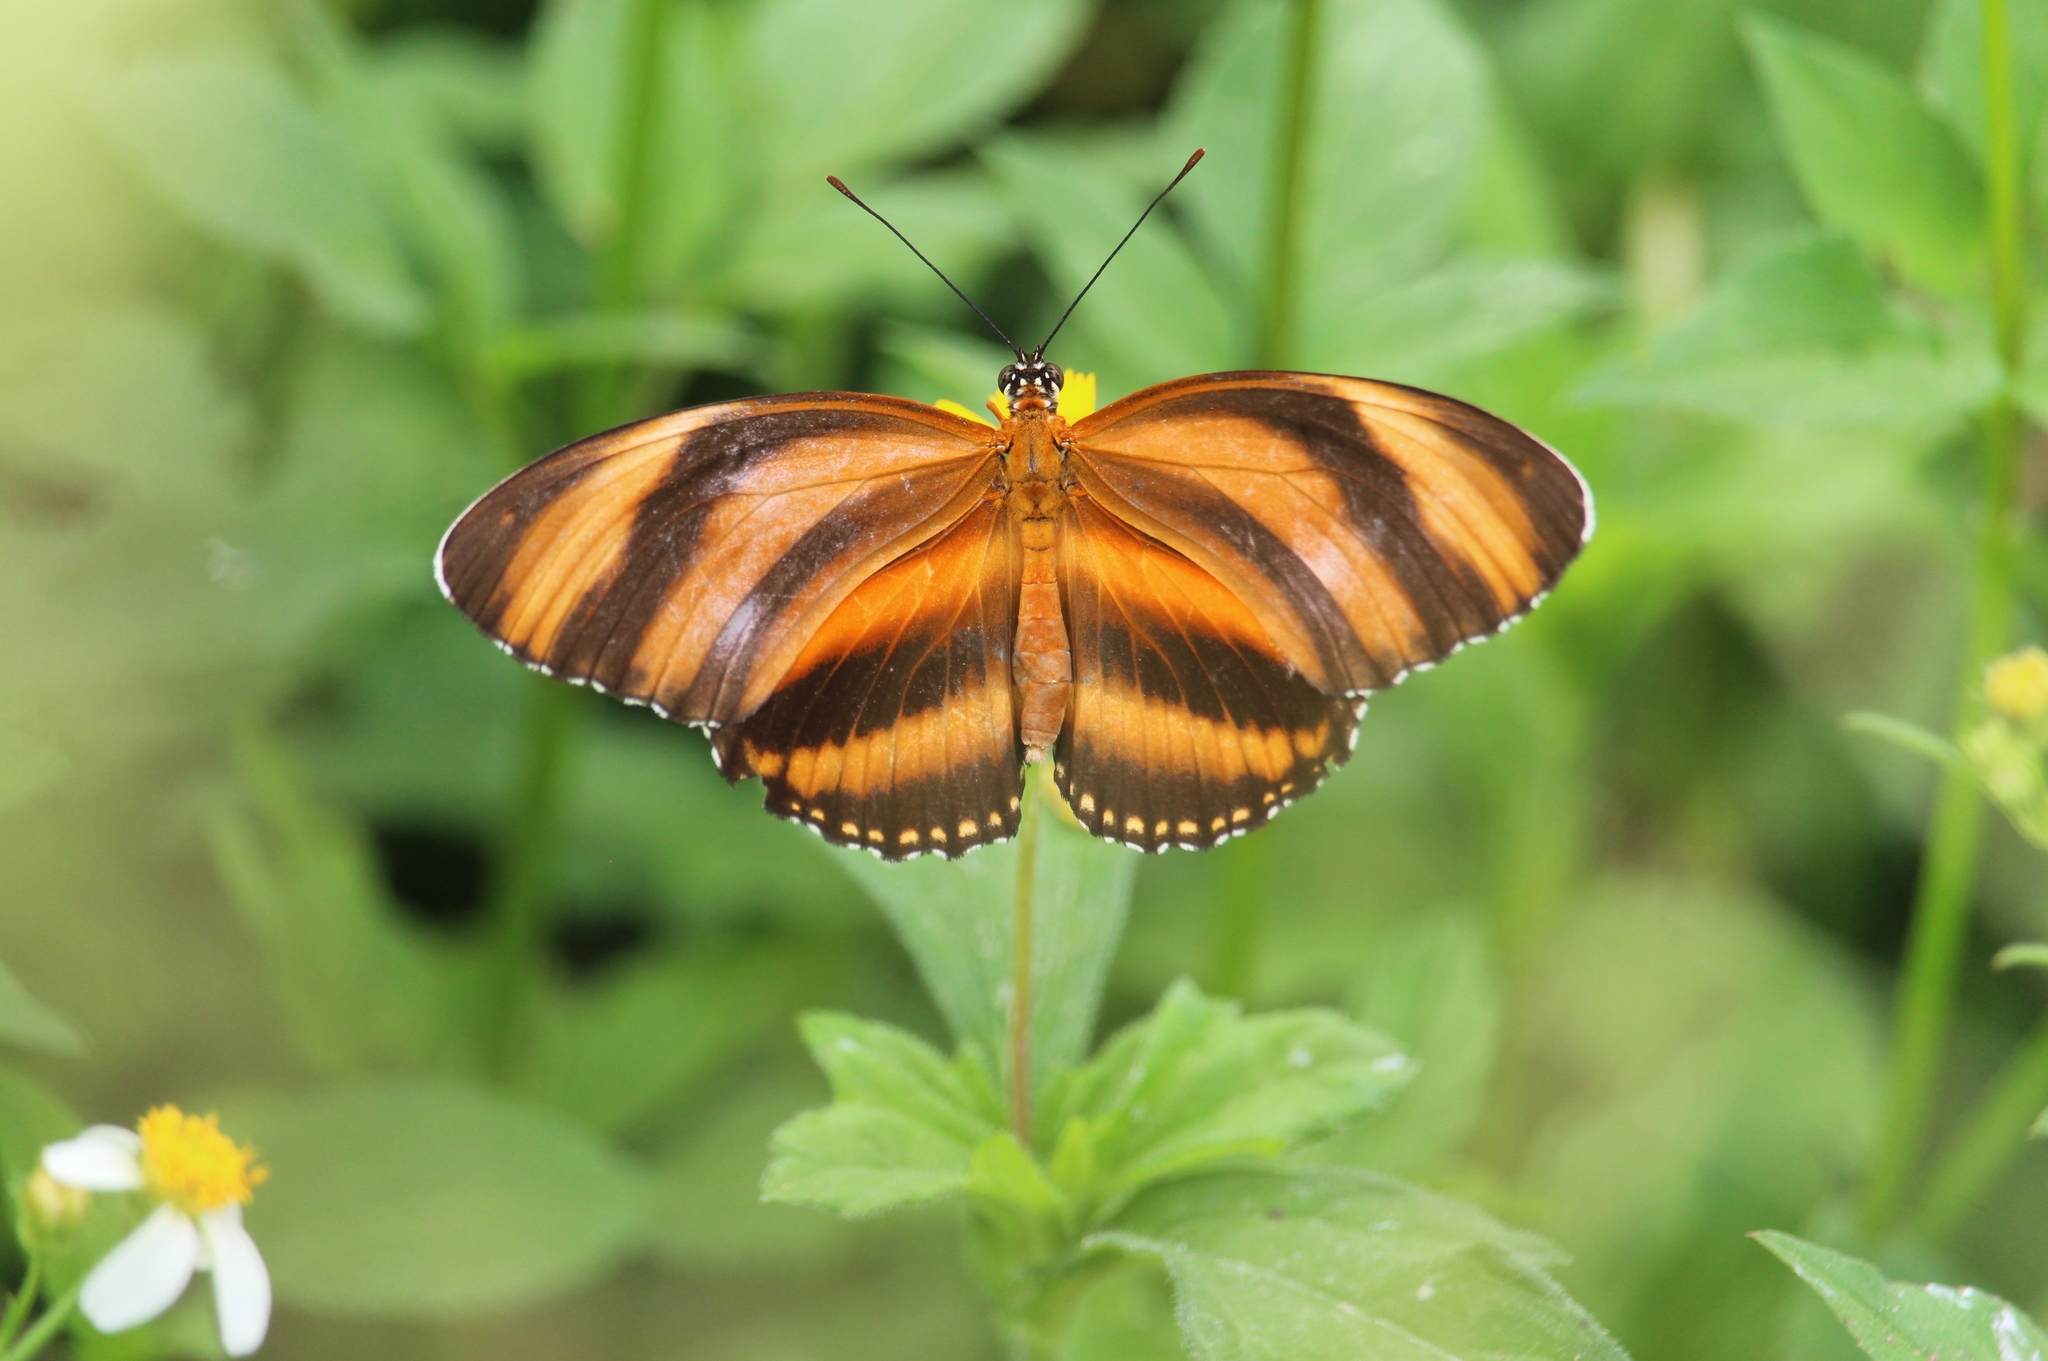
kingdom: Animalia
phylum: Arthropoda
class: Insecta
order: Lepidoptera
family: Nymphalidae
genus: Dryadula
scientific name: Dryadula phaetusa
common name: Banded orange heliconian
